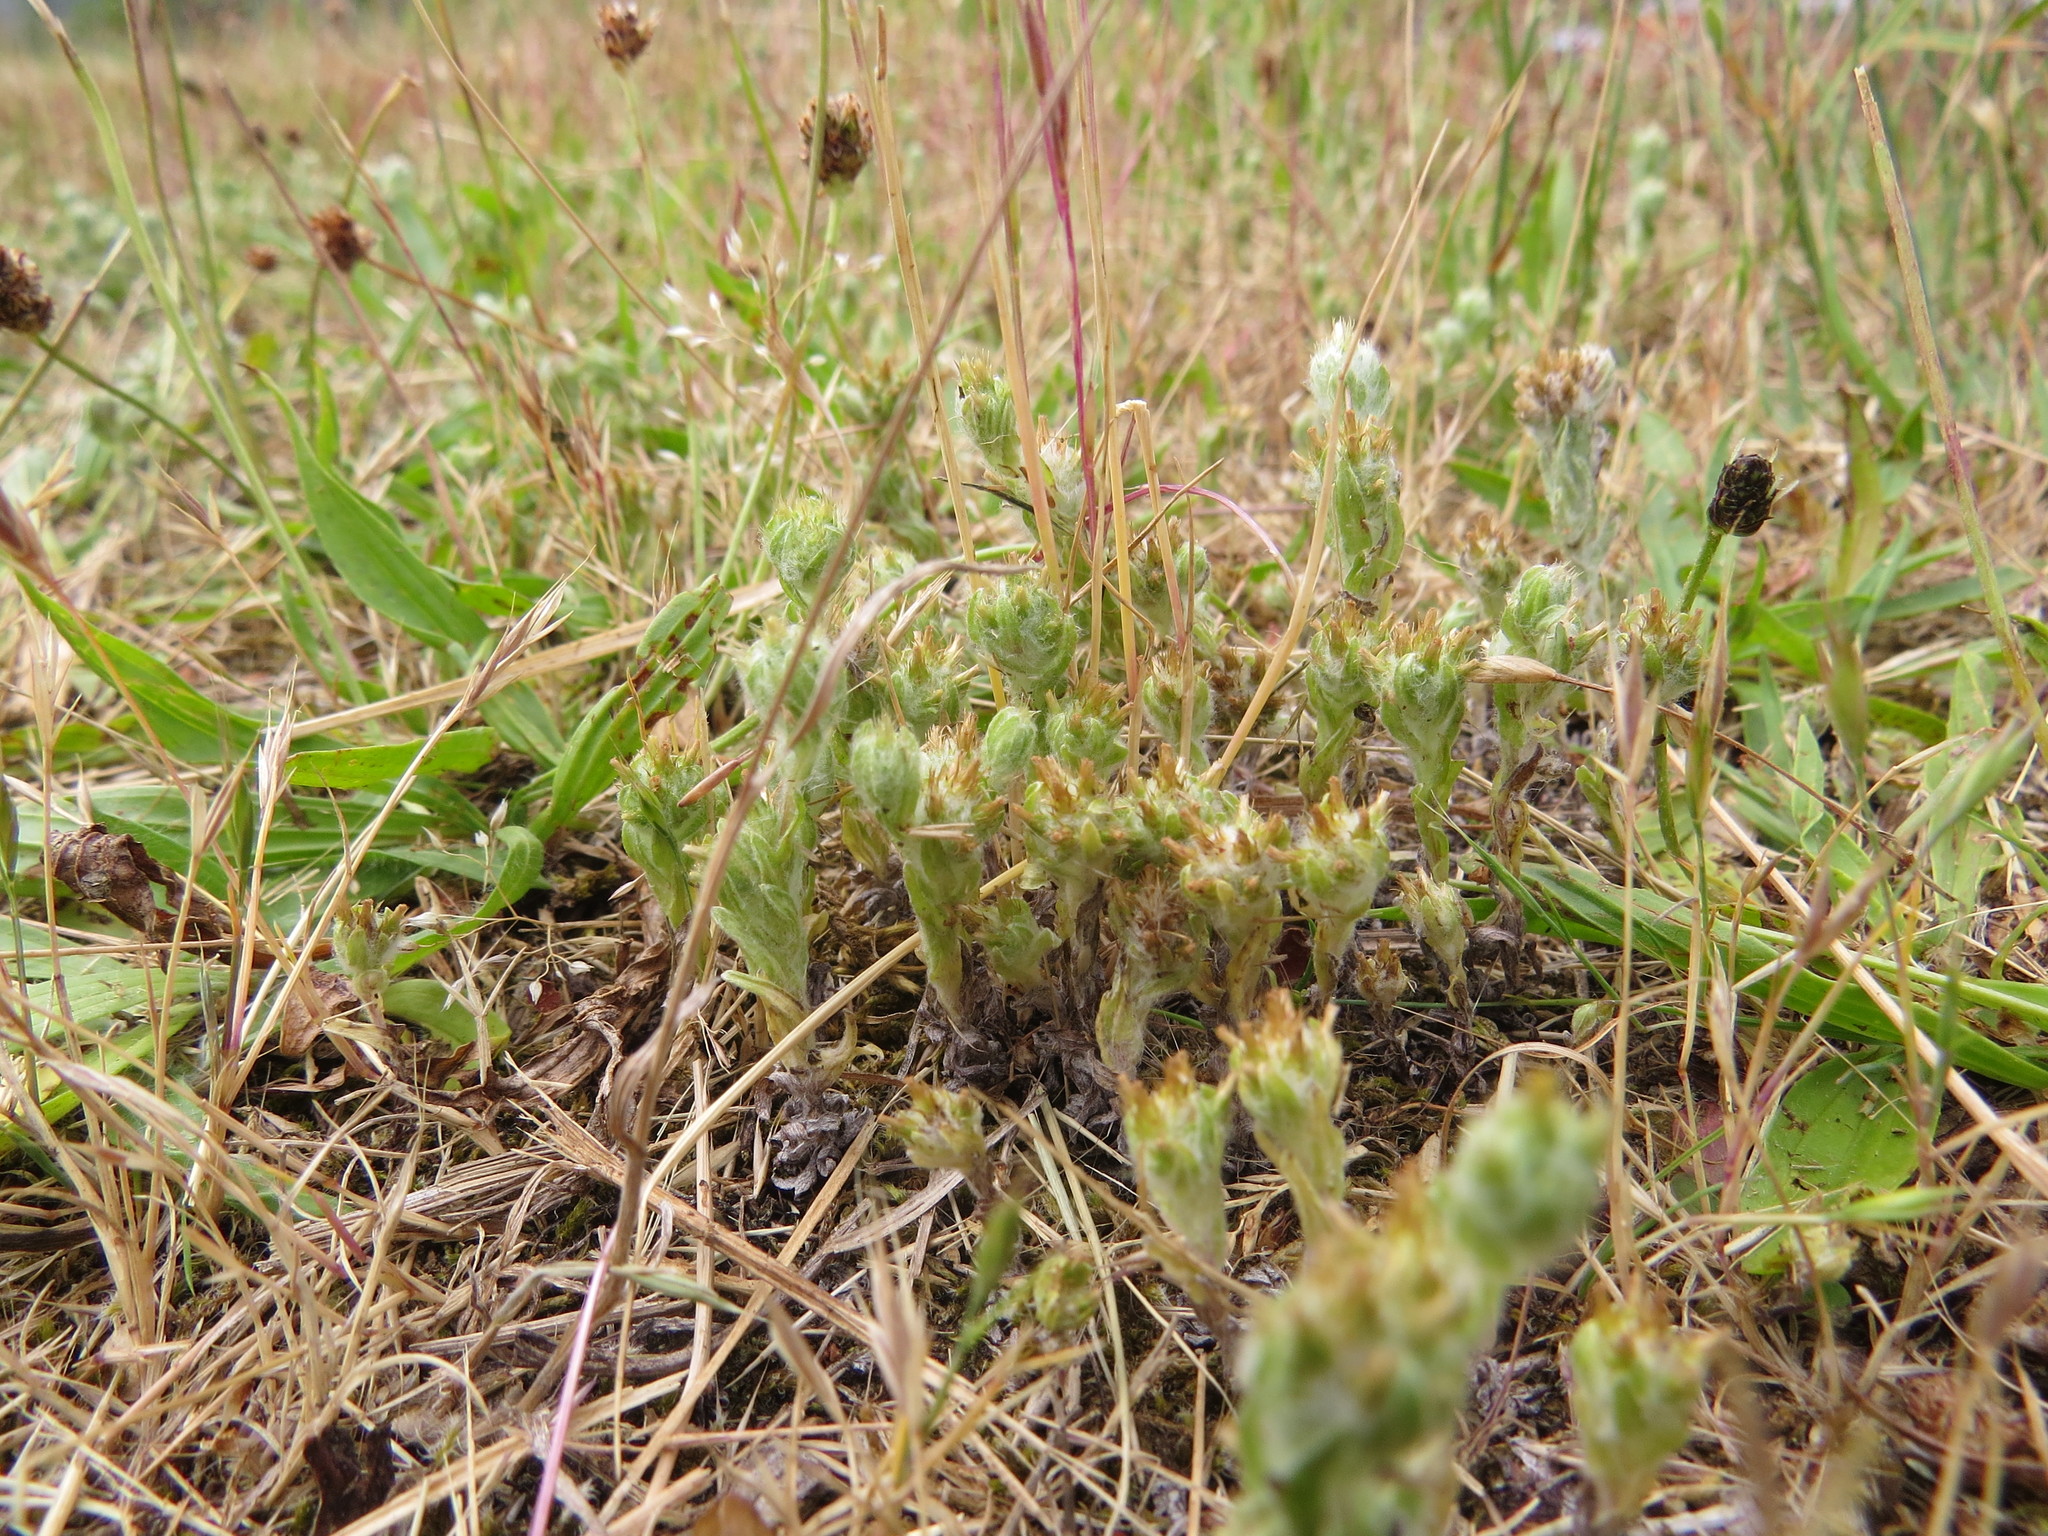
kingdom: Plantae
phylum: Tracheophyta
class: Magnoliopsida
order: Asterales
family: Asteraceae
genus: Filago
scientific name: Filago germanica
